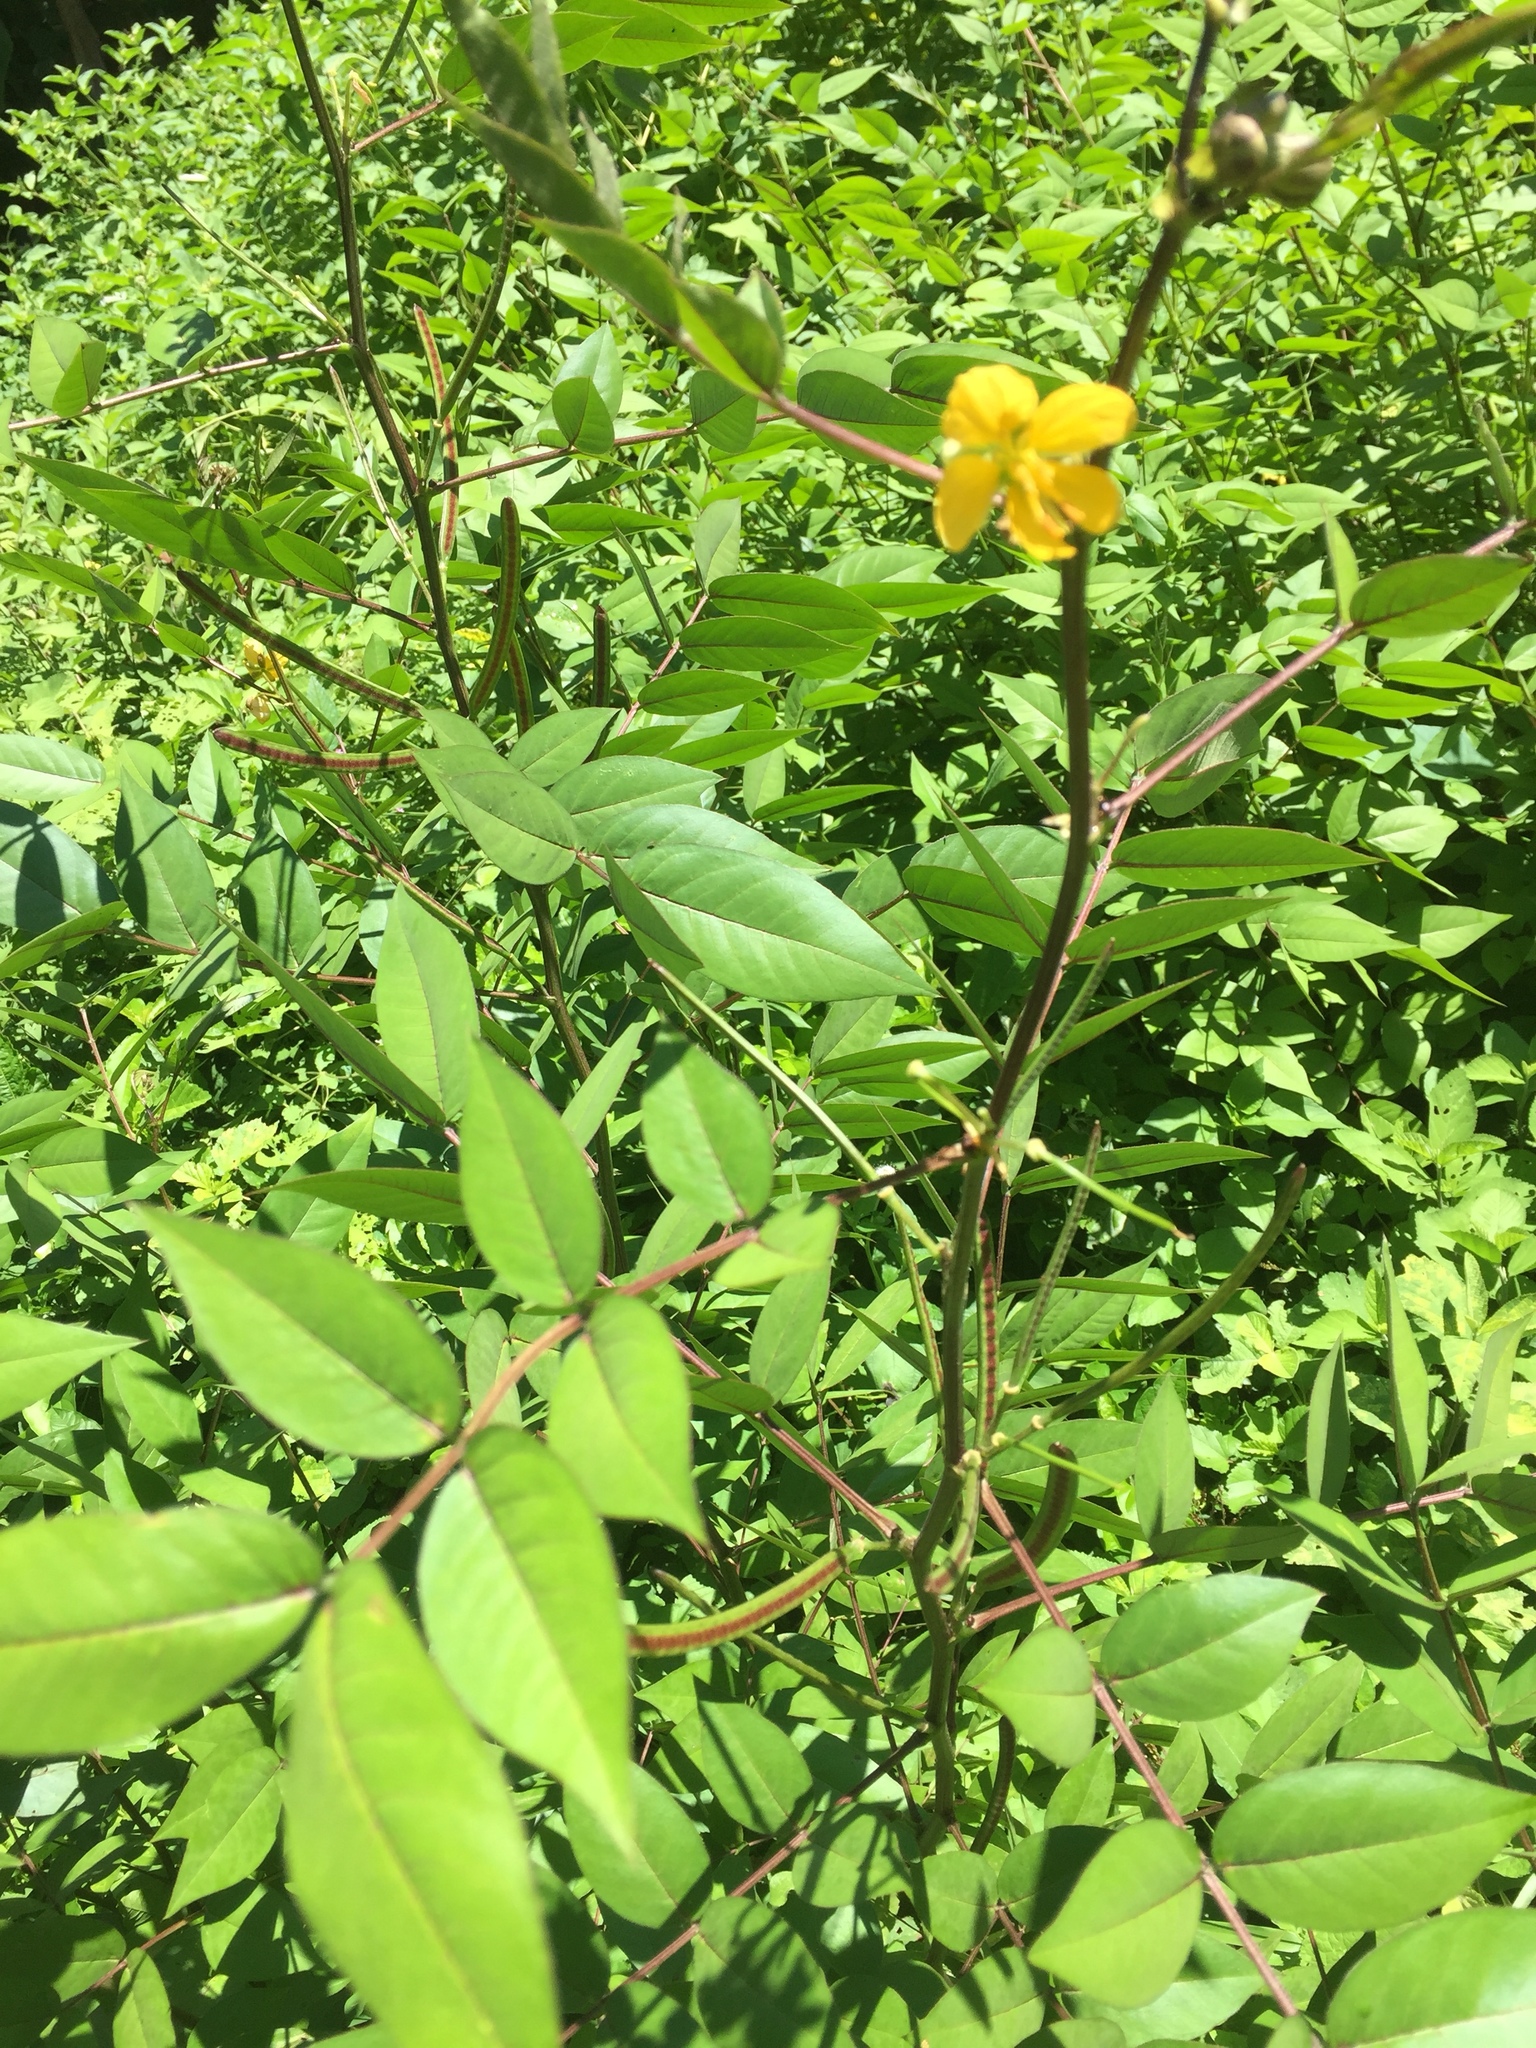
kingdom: Plantae
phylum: Tracheophyta
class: Magnoliopsida
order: Fabales
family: Fabaceae
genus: Senna
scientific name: Senna occidentalis
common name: Septicweed
